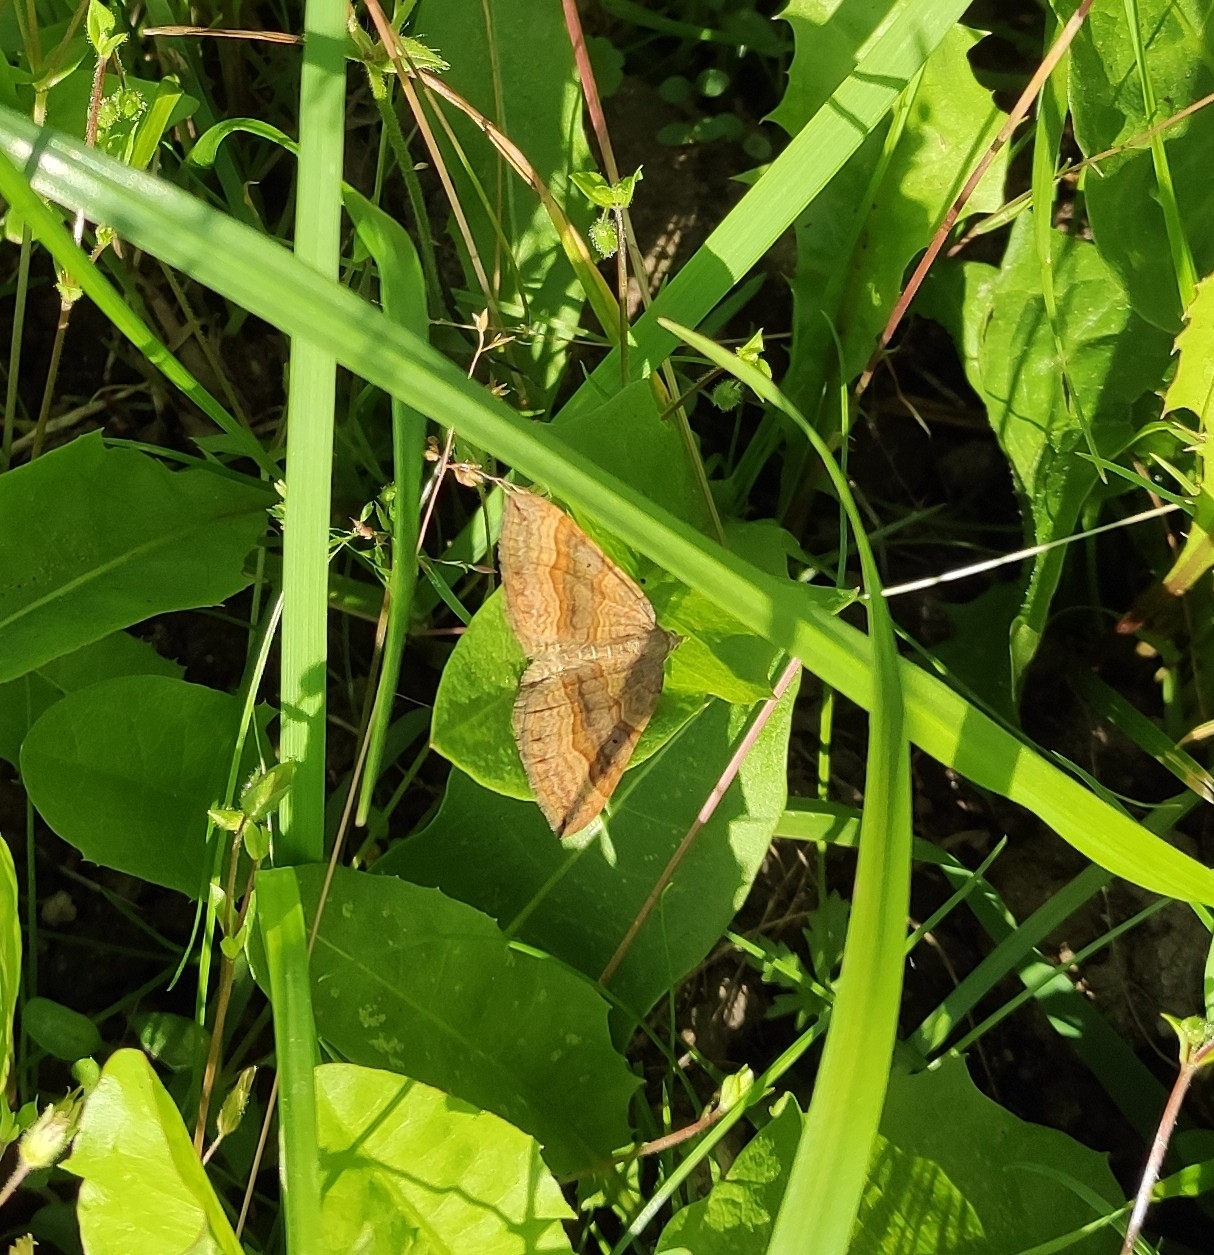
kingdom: Animalia
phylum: Arthropoda
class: Insecta
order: Lepidoptera
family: Geometridae
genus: Scotopteryx
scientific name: Scotopteryx chenopodiata
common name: Shaded broad-bar
